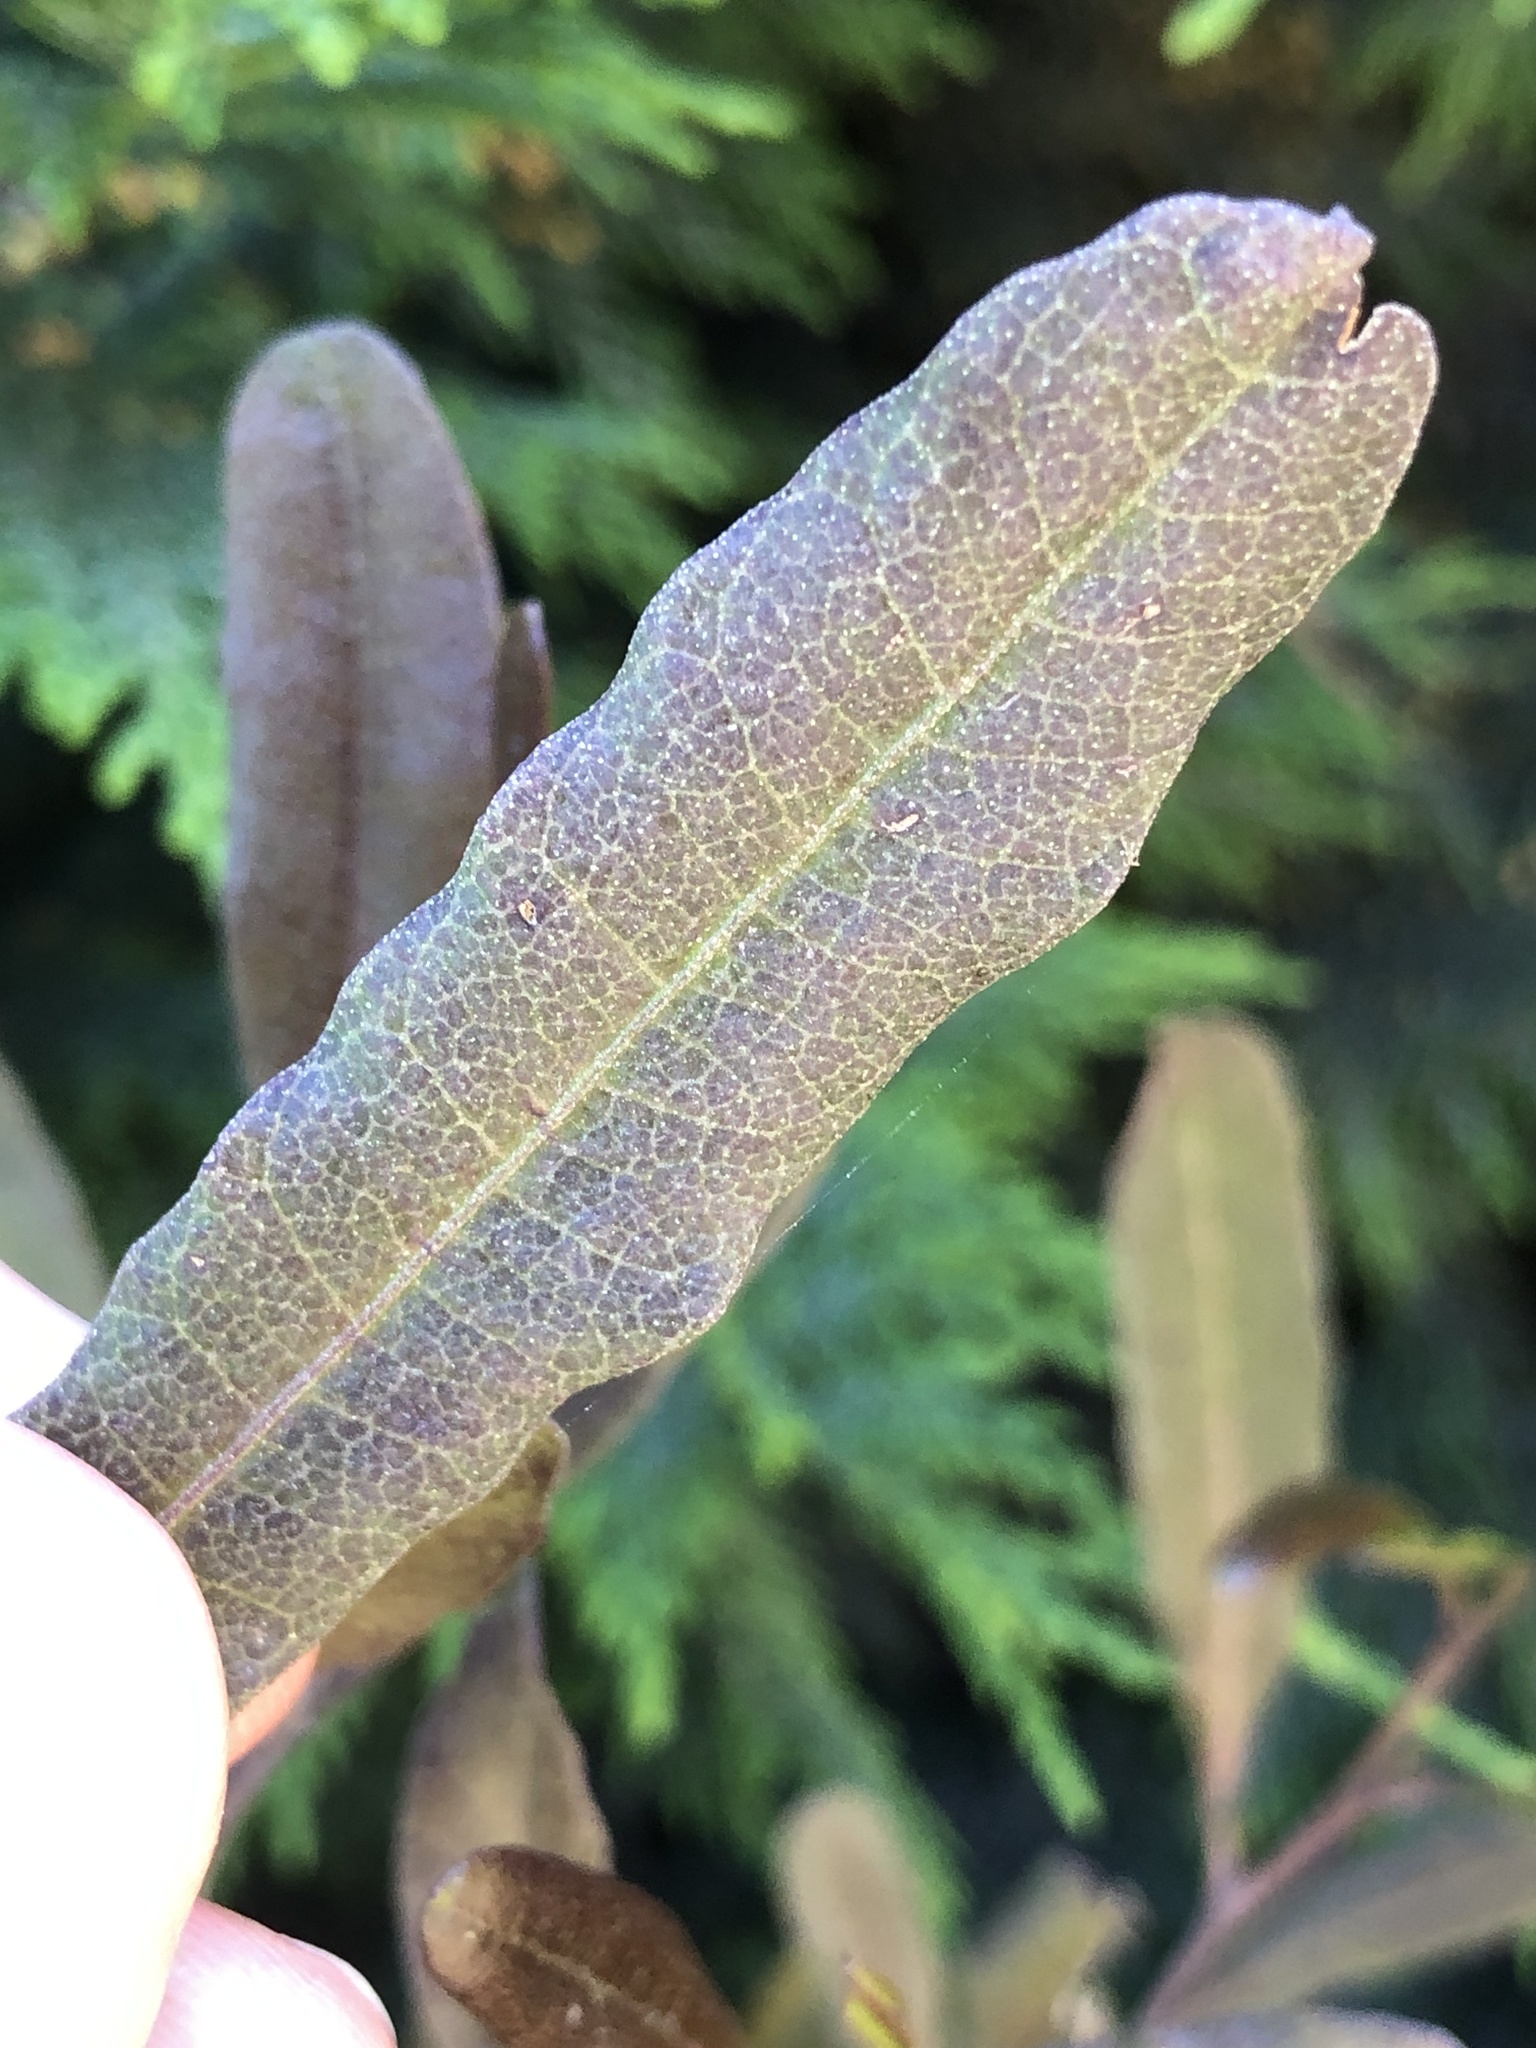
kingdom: Plantae
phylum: Tracheophyta
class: Magnoliopsida
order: Sapindales
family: Sapindaceae
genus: Dodonaea
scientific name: Dodonaea viscosa
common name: Hopbush
